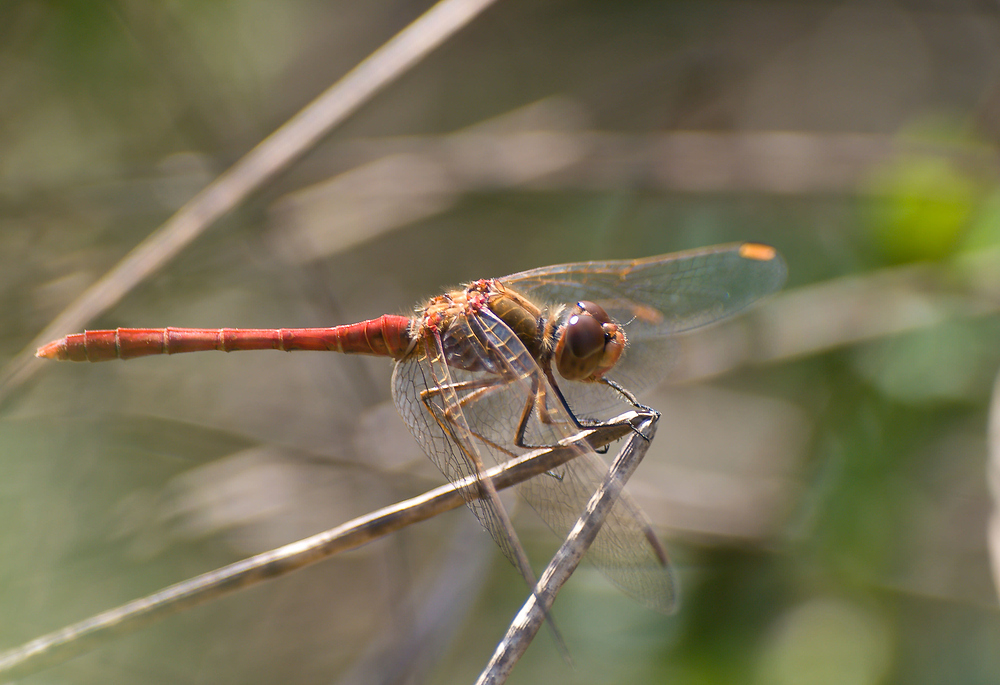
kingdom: Animalia
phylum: Arthropoda
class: Insecta
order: Odonata
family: Libellulidae
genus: Sympetrum
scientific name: Sympetrum meridionale
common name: Southern darter
